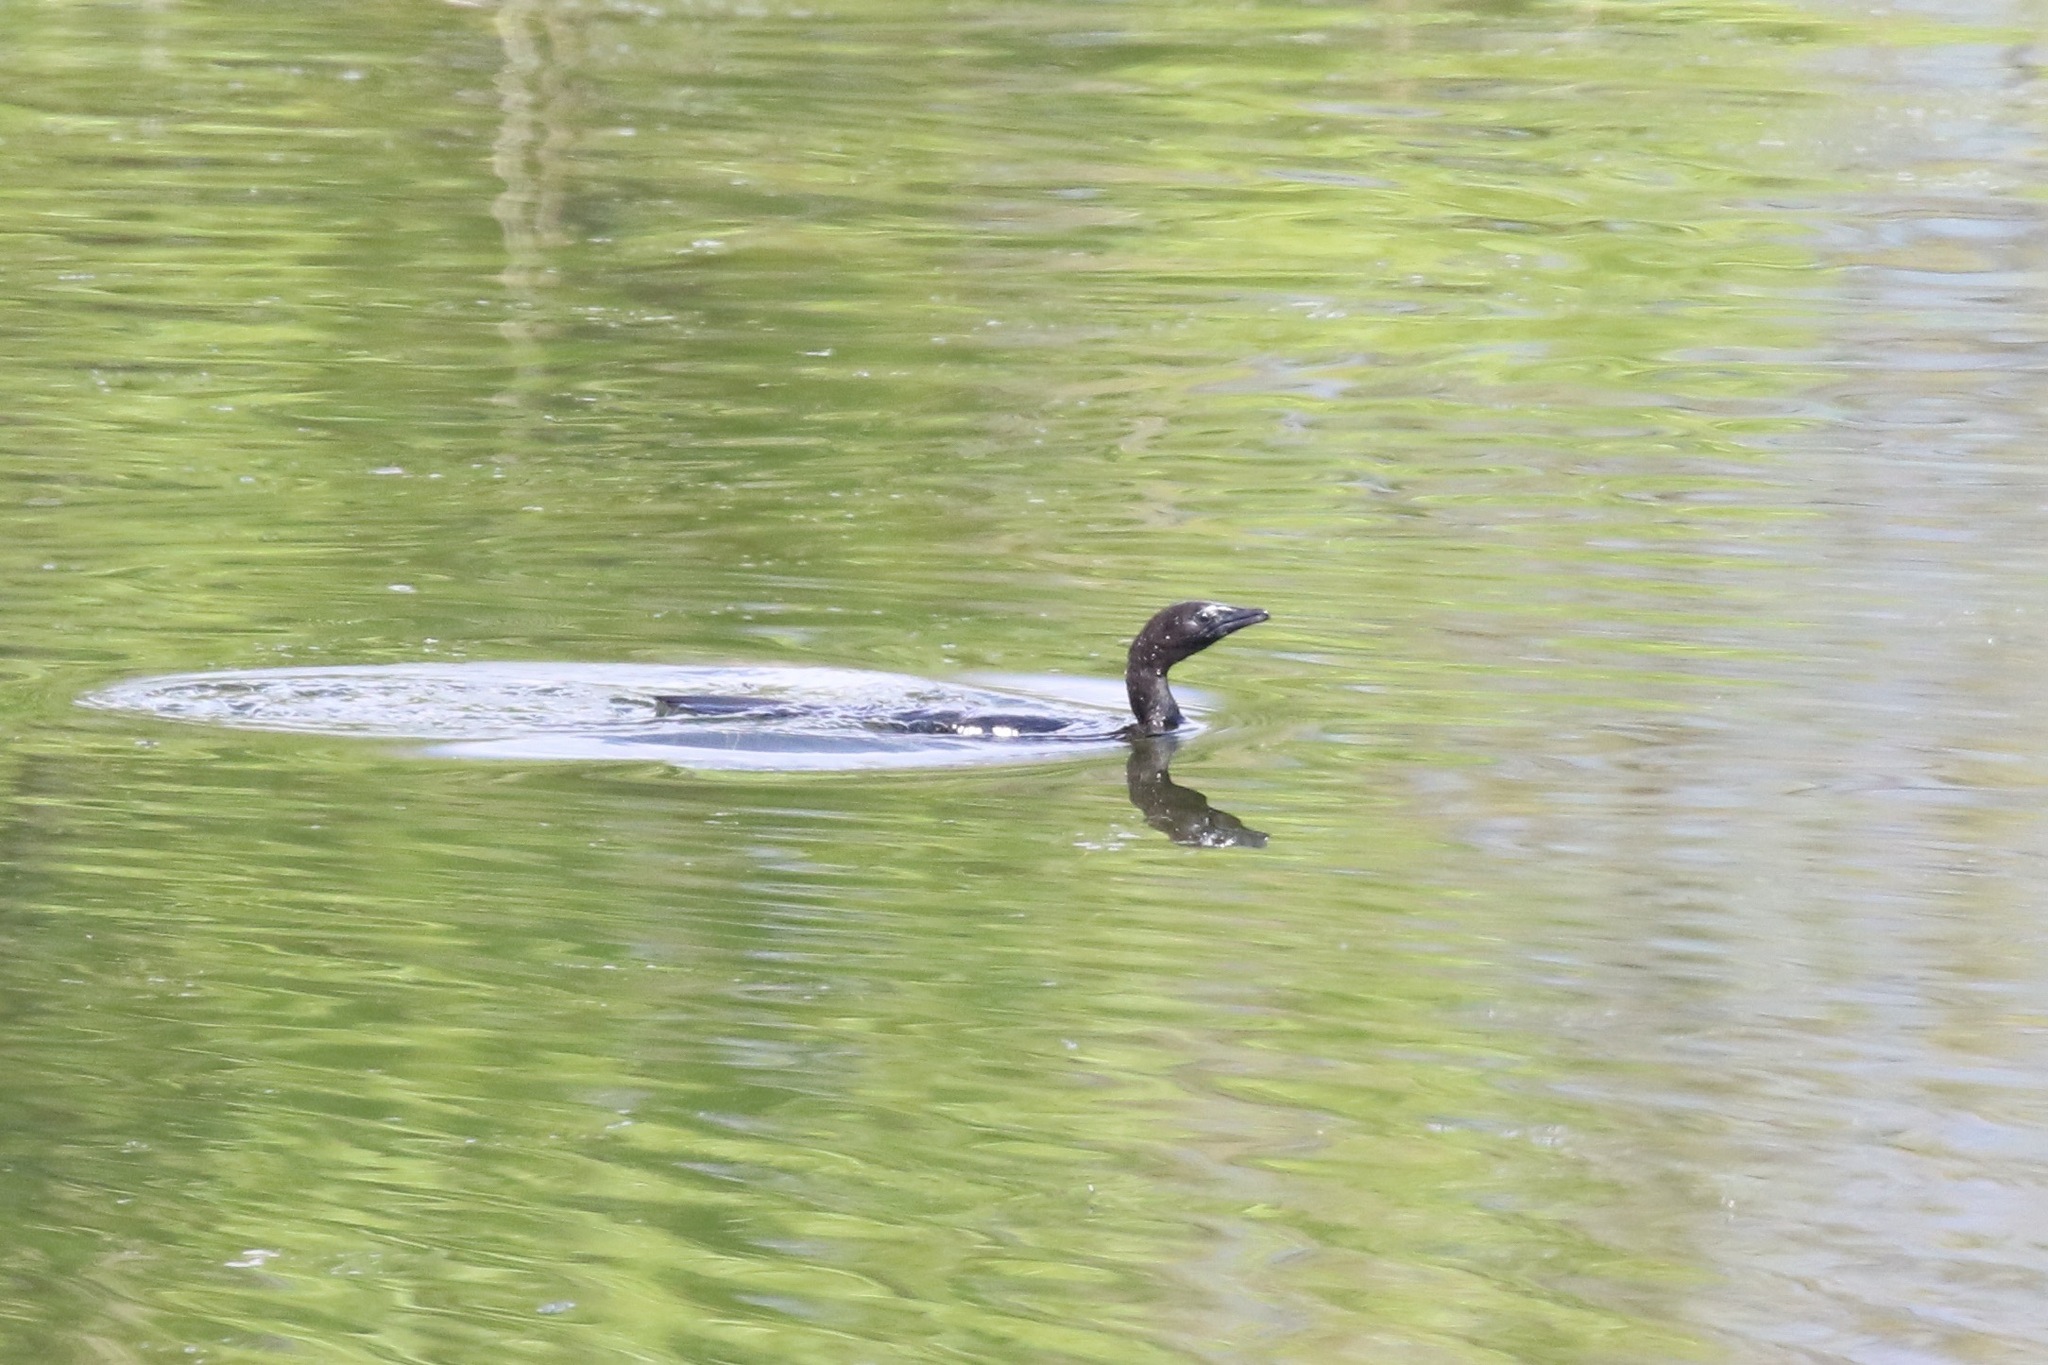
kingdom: Animalia
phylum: Chordata
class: Aves
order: Suliformes
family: Phalacrocoracidae
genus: Microcarbo
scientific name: Microcarbo pygmaeus
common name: Pygmy cormorant
